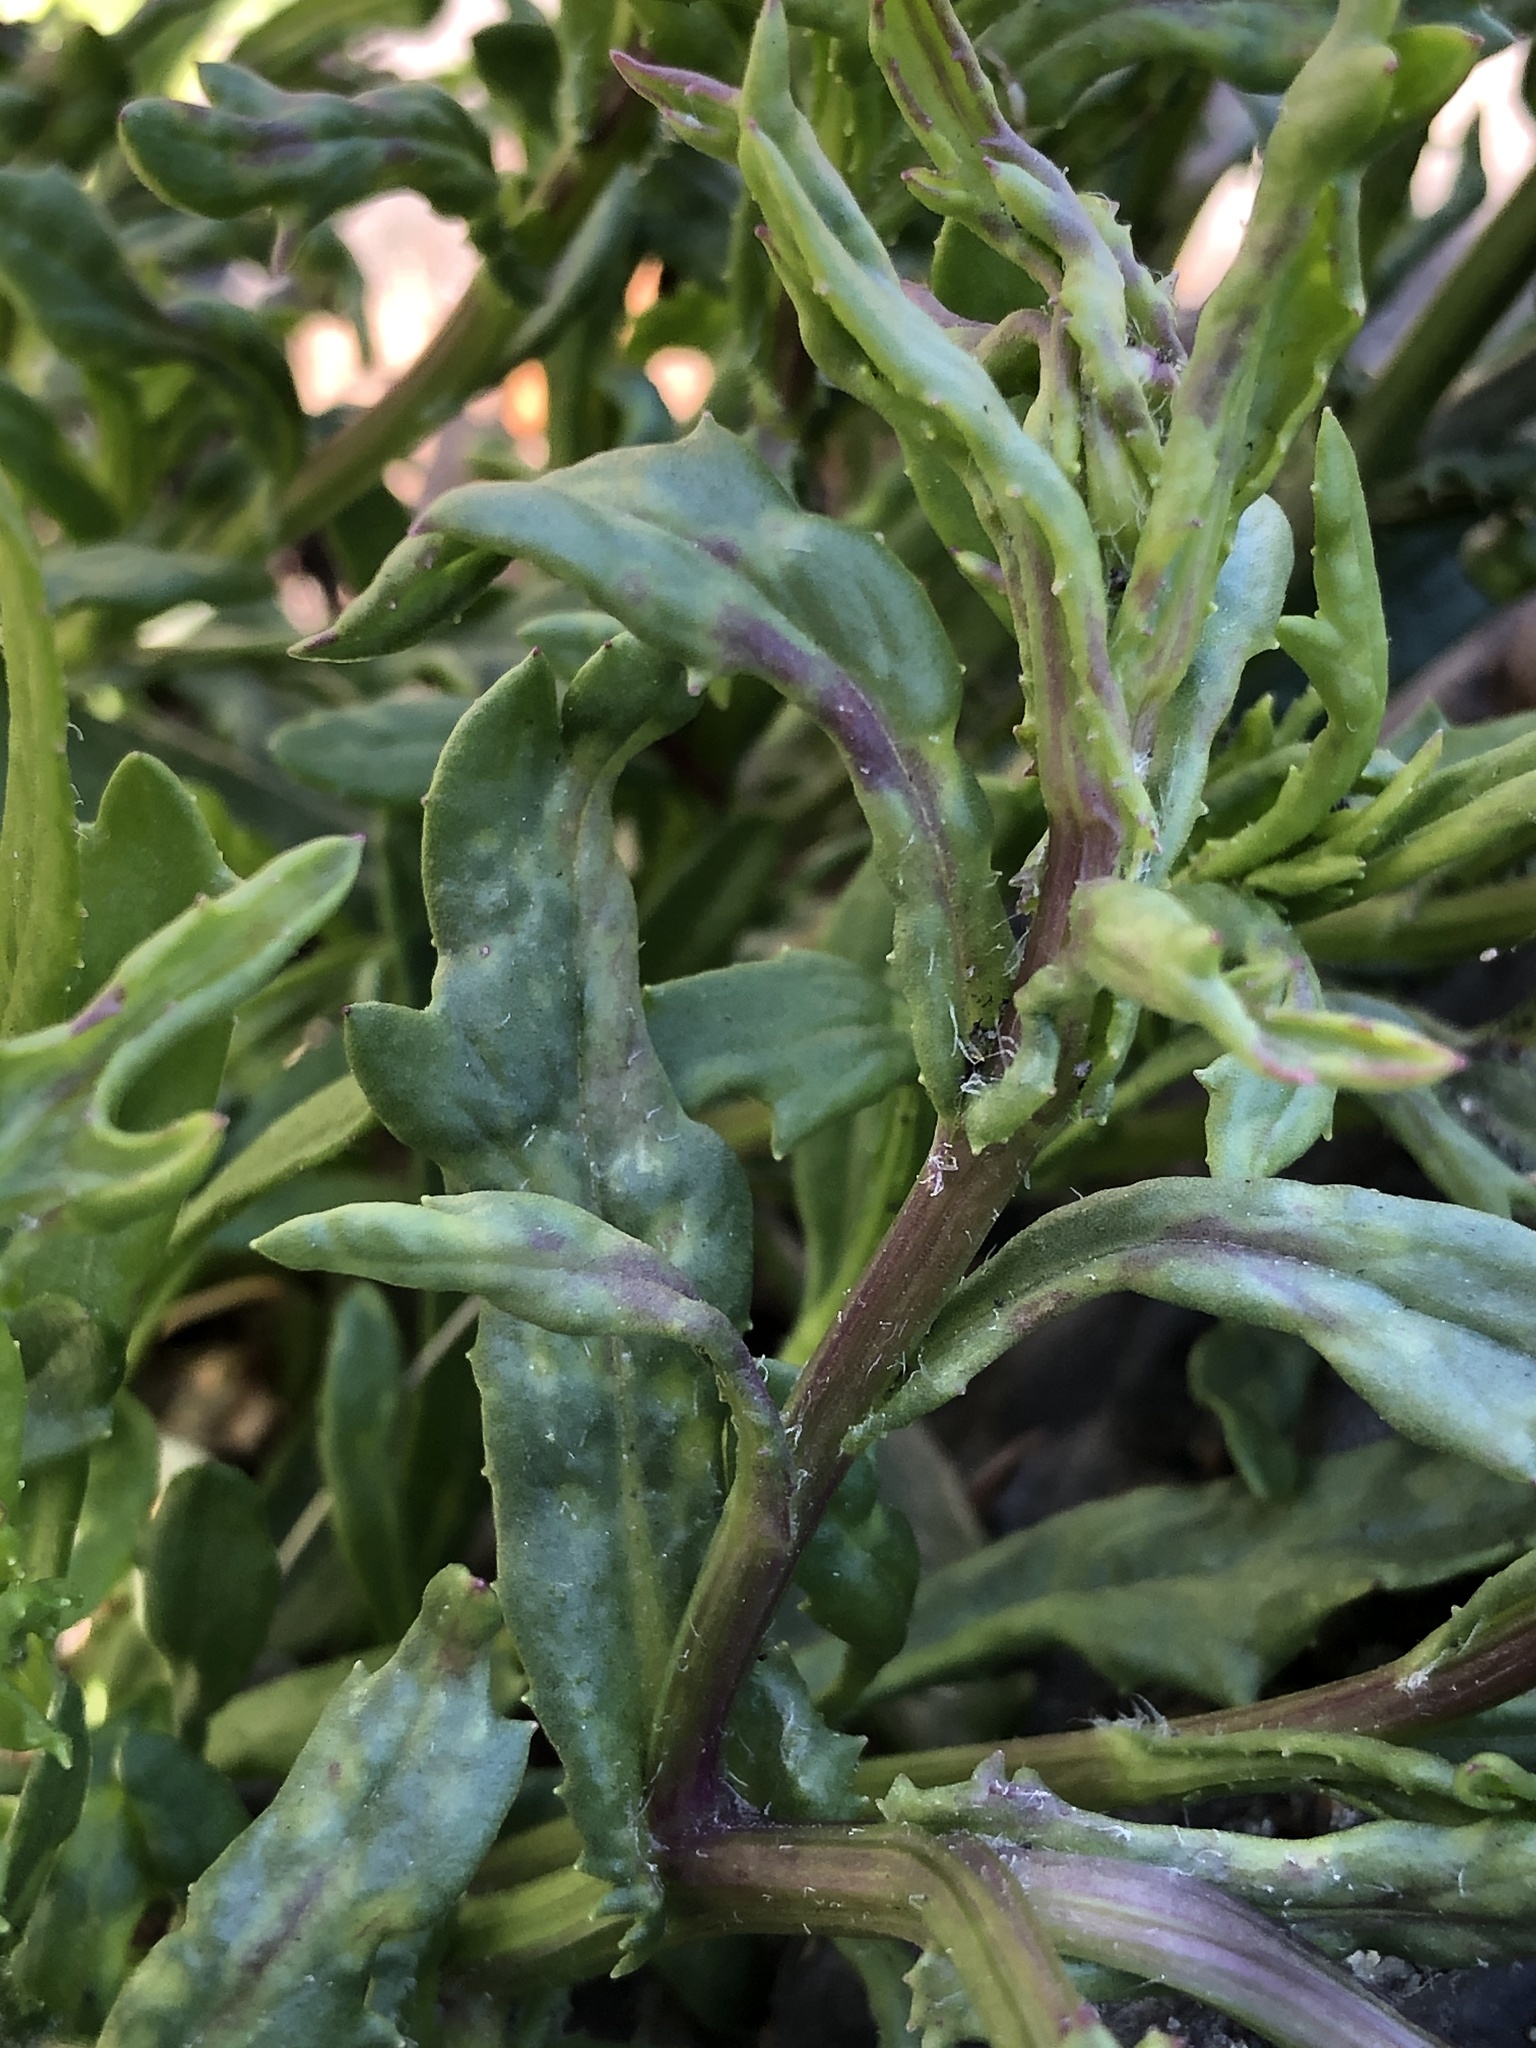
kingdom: Plantae
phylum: Tracheophyta
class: Magnoliopsida
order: Asterales
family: Asteraceae
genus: Senecio
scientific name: Senecio skirrhodon
